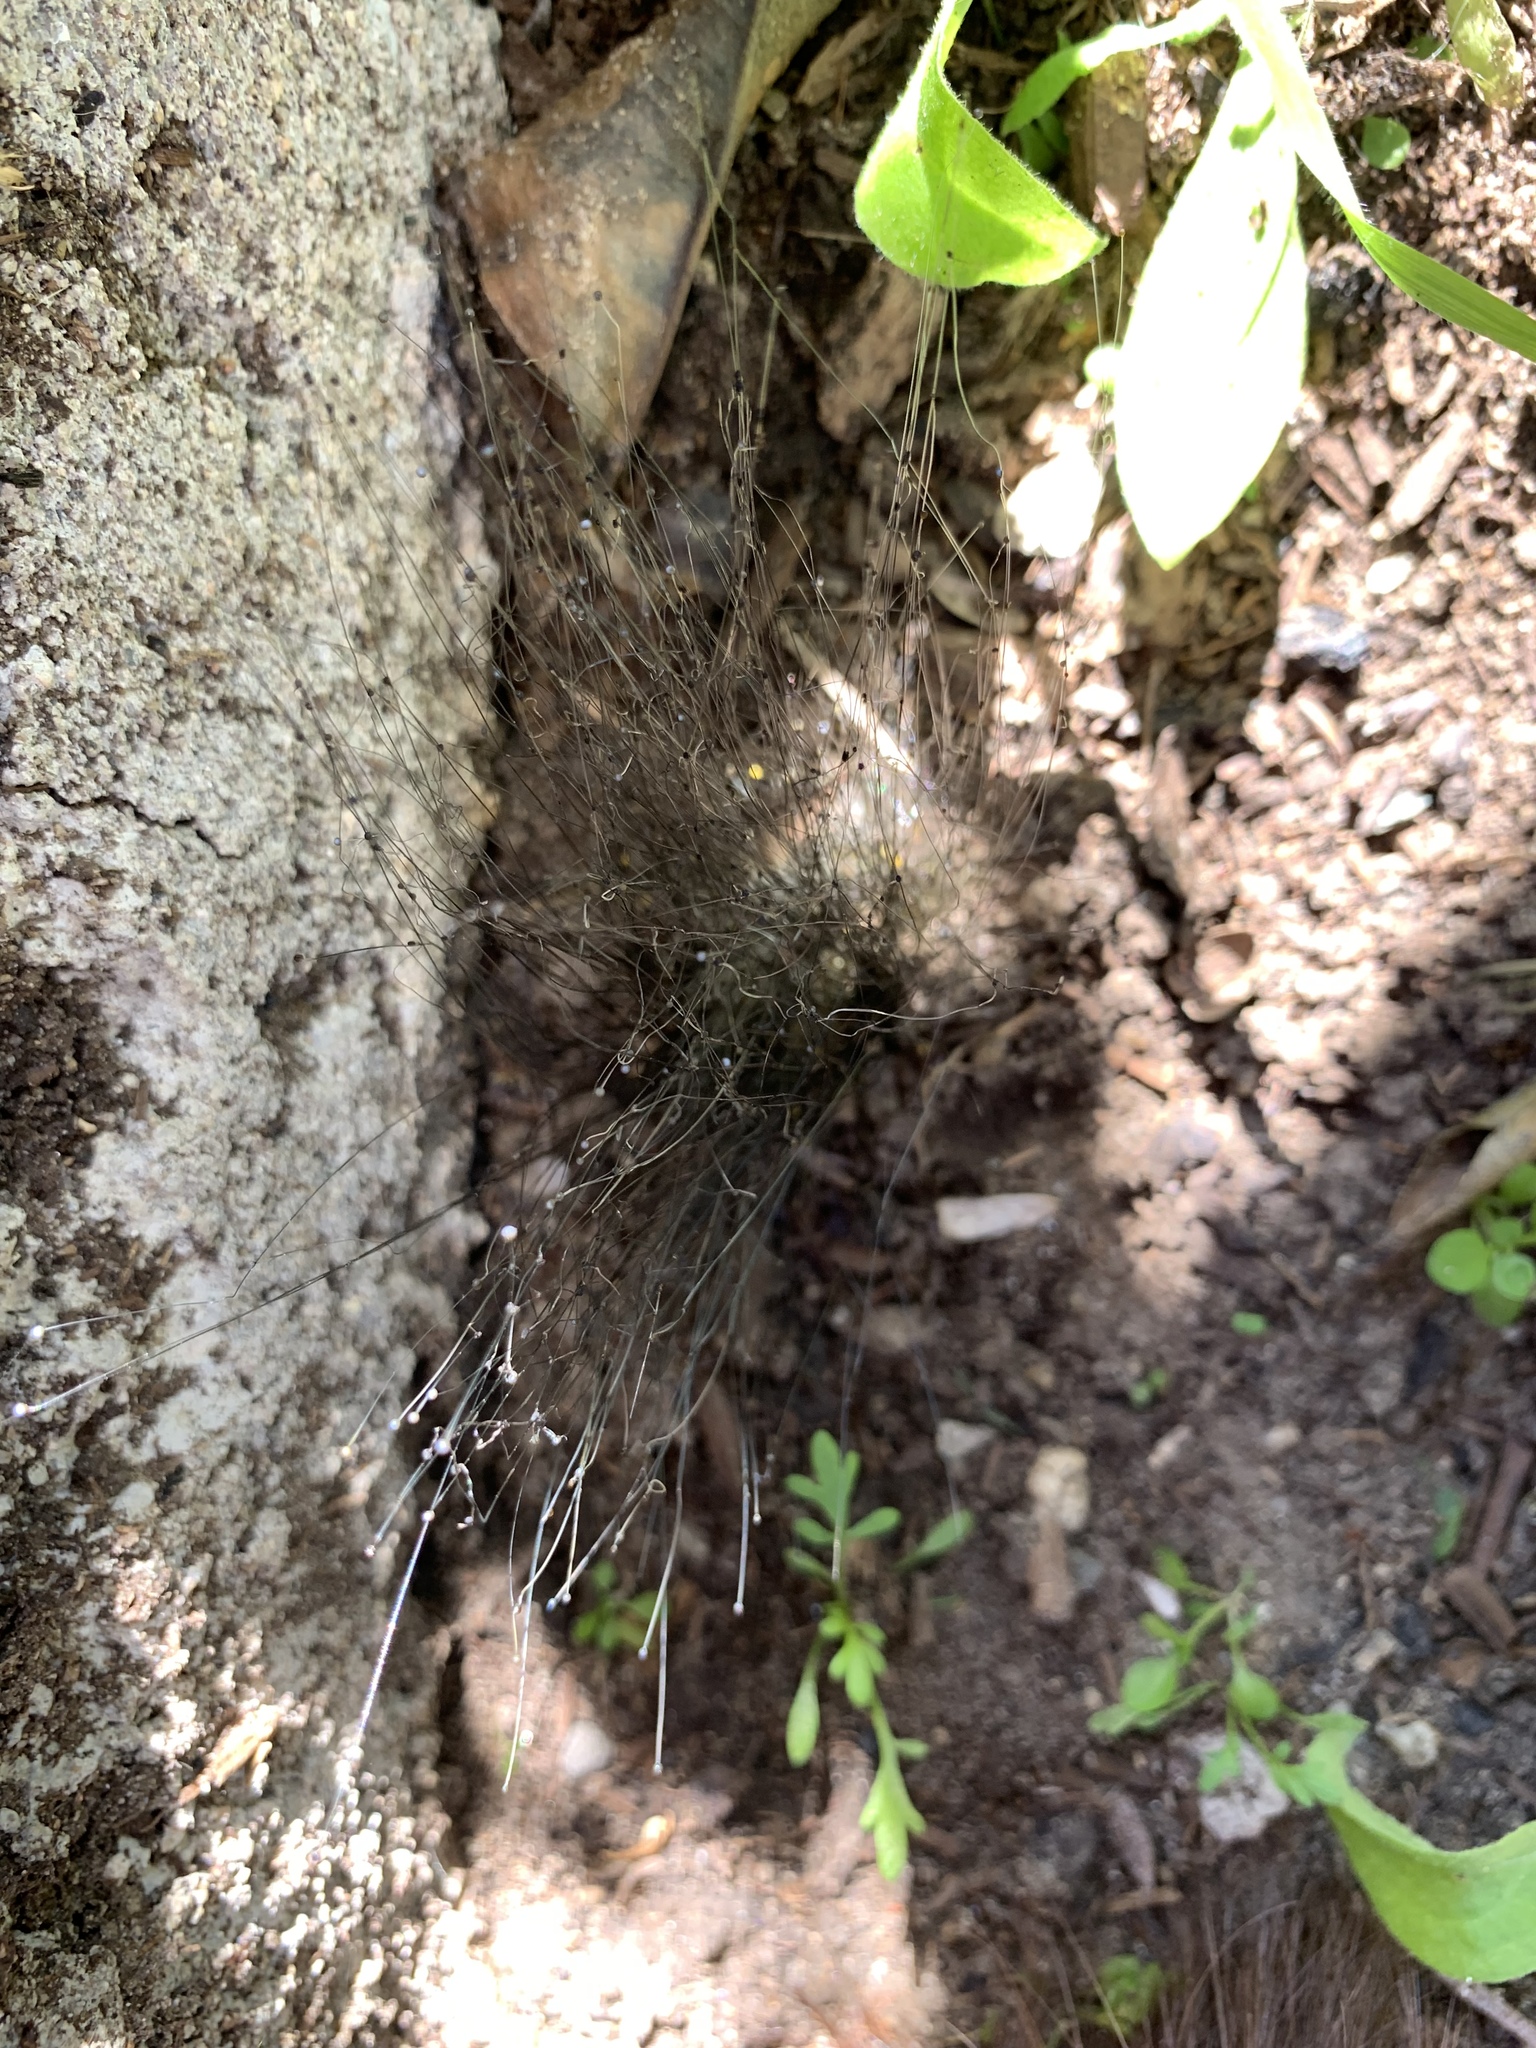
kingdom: Fungi
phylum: Mucoromycota
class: Mucoromycetes
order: Mucorales
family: Phycomycetaceae
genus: Phycomyces
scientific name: Phycomyces
